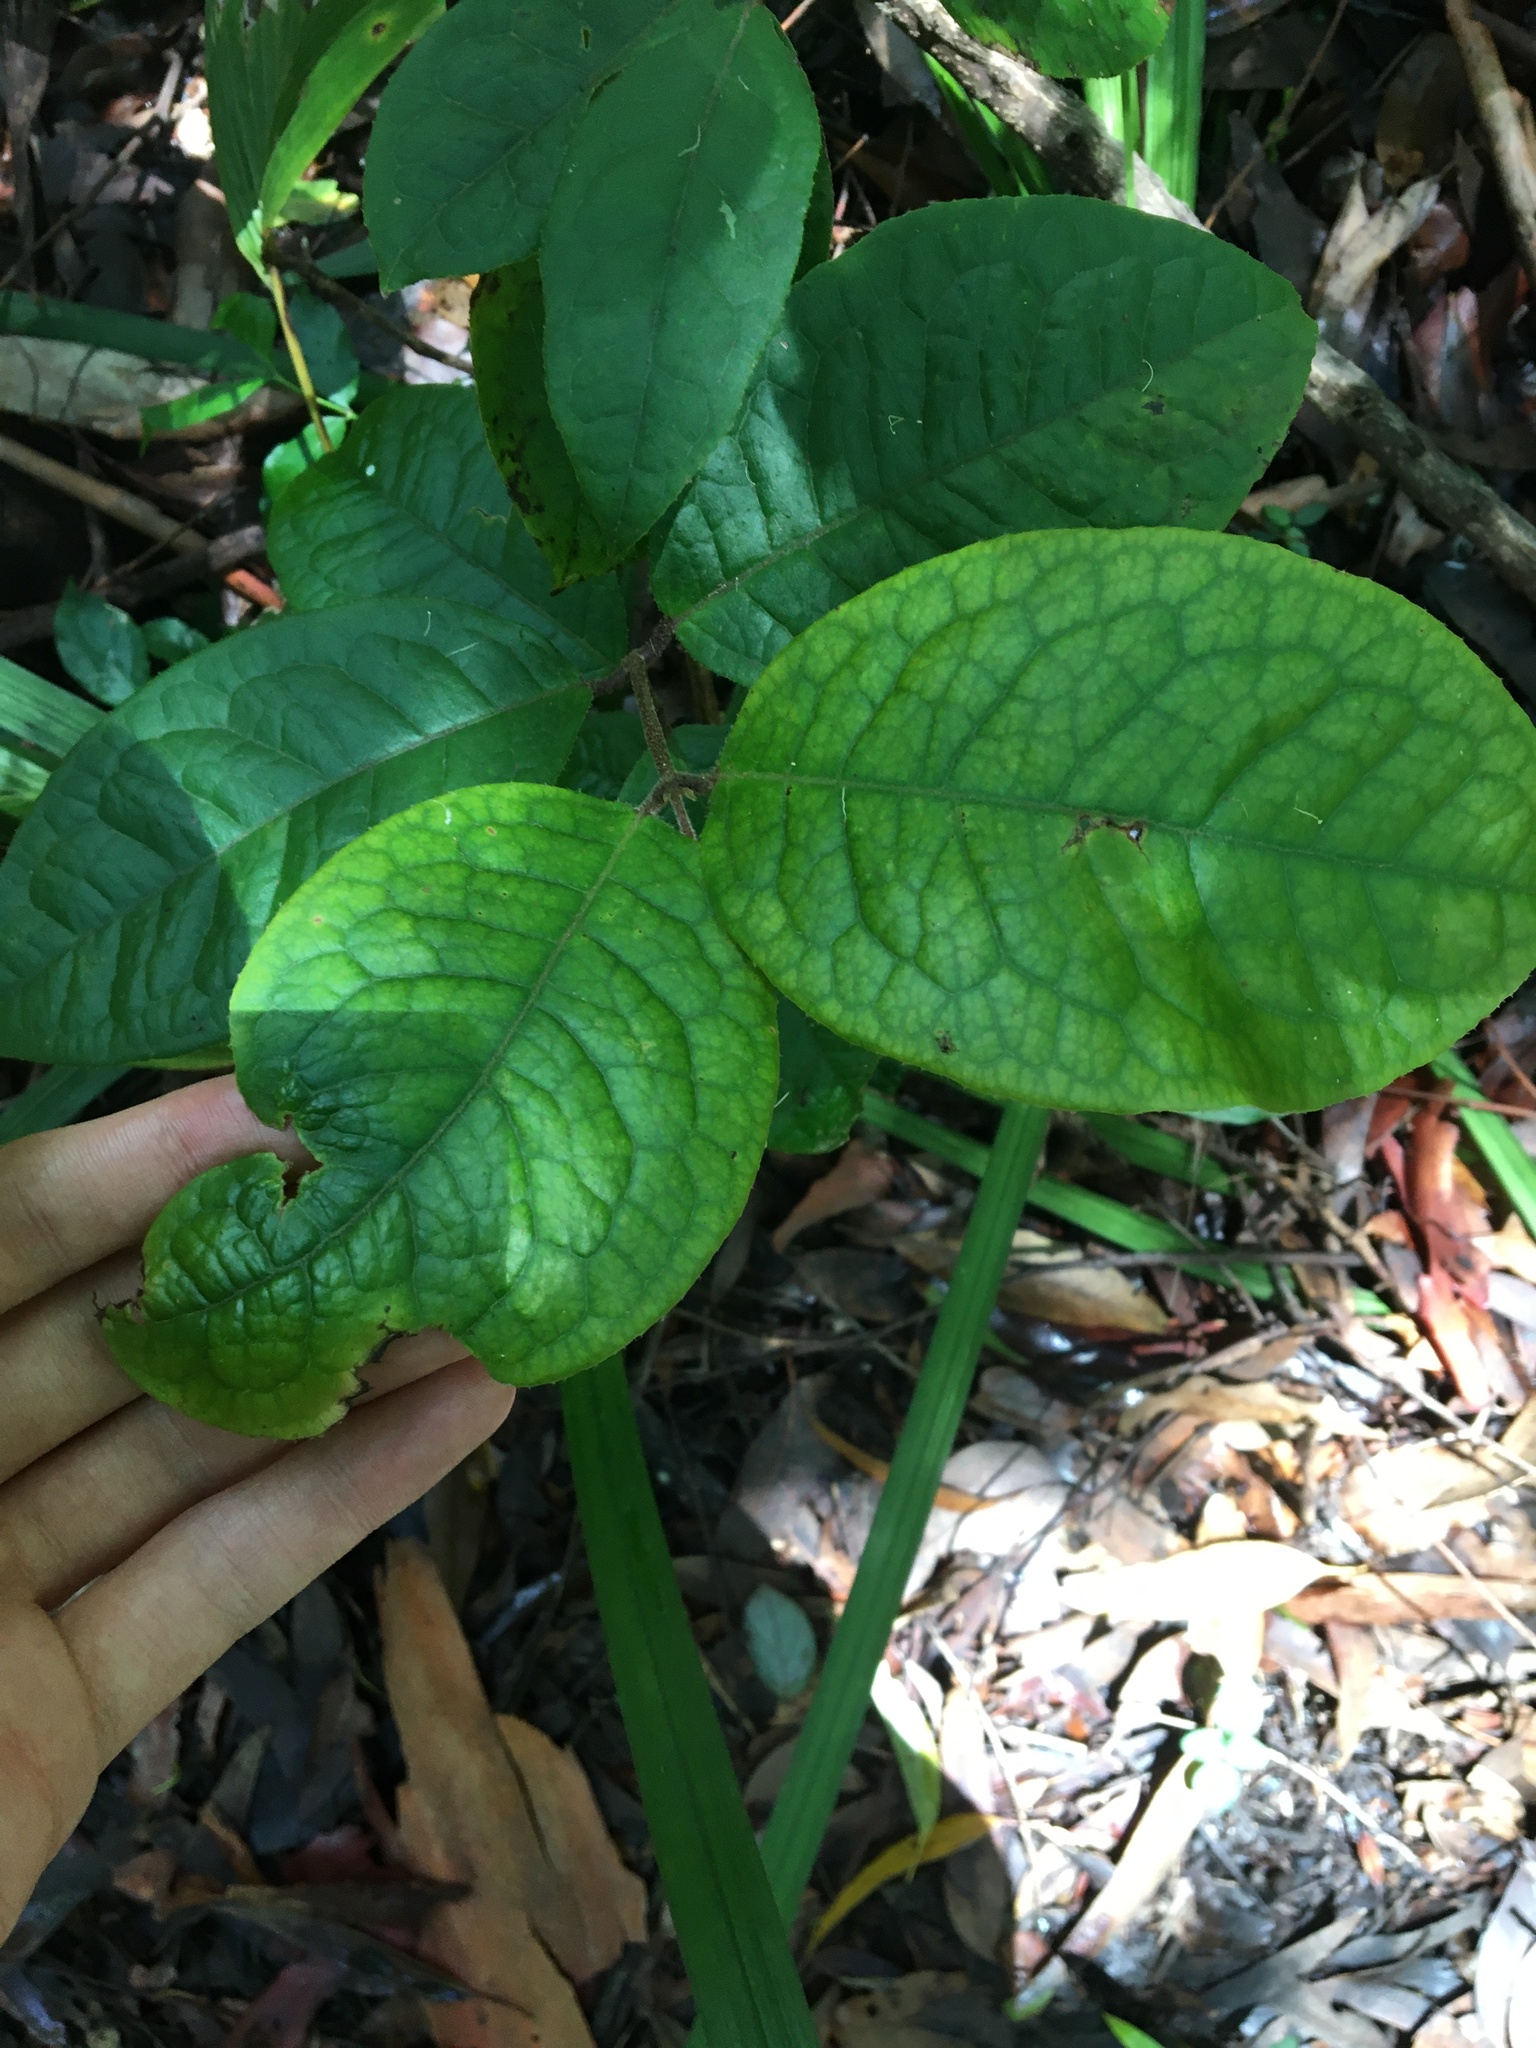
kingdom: Plantae
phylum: Tracheophyta
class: Magnoliopsida
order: Laurales
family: Monimiaceae
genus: Palmeria
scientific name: Palmeria scandens
